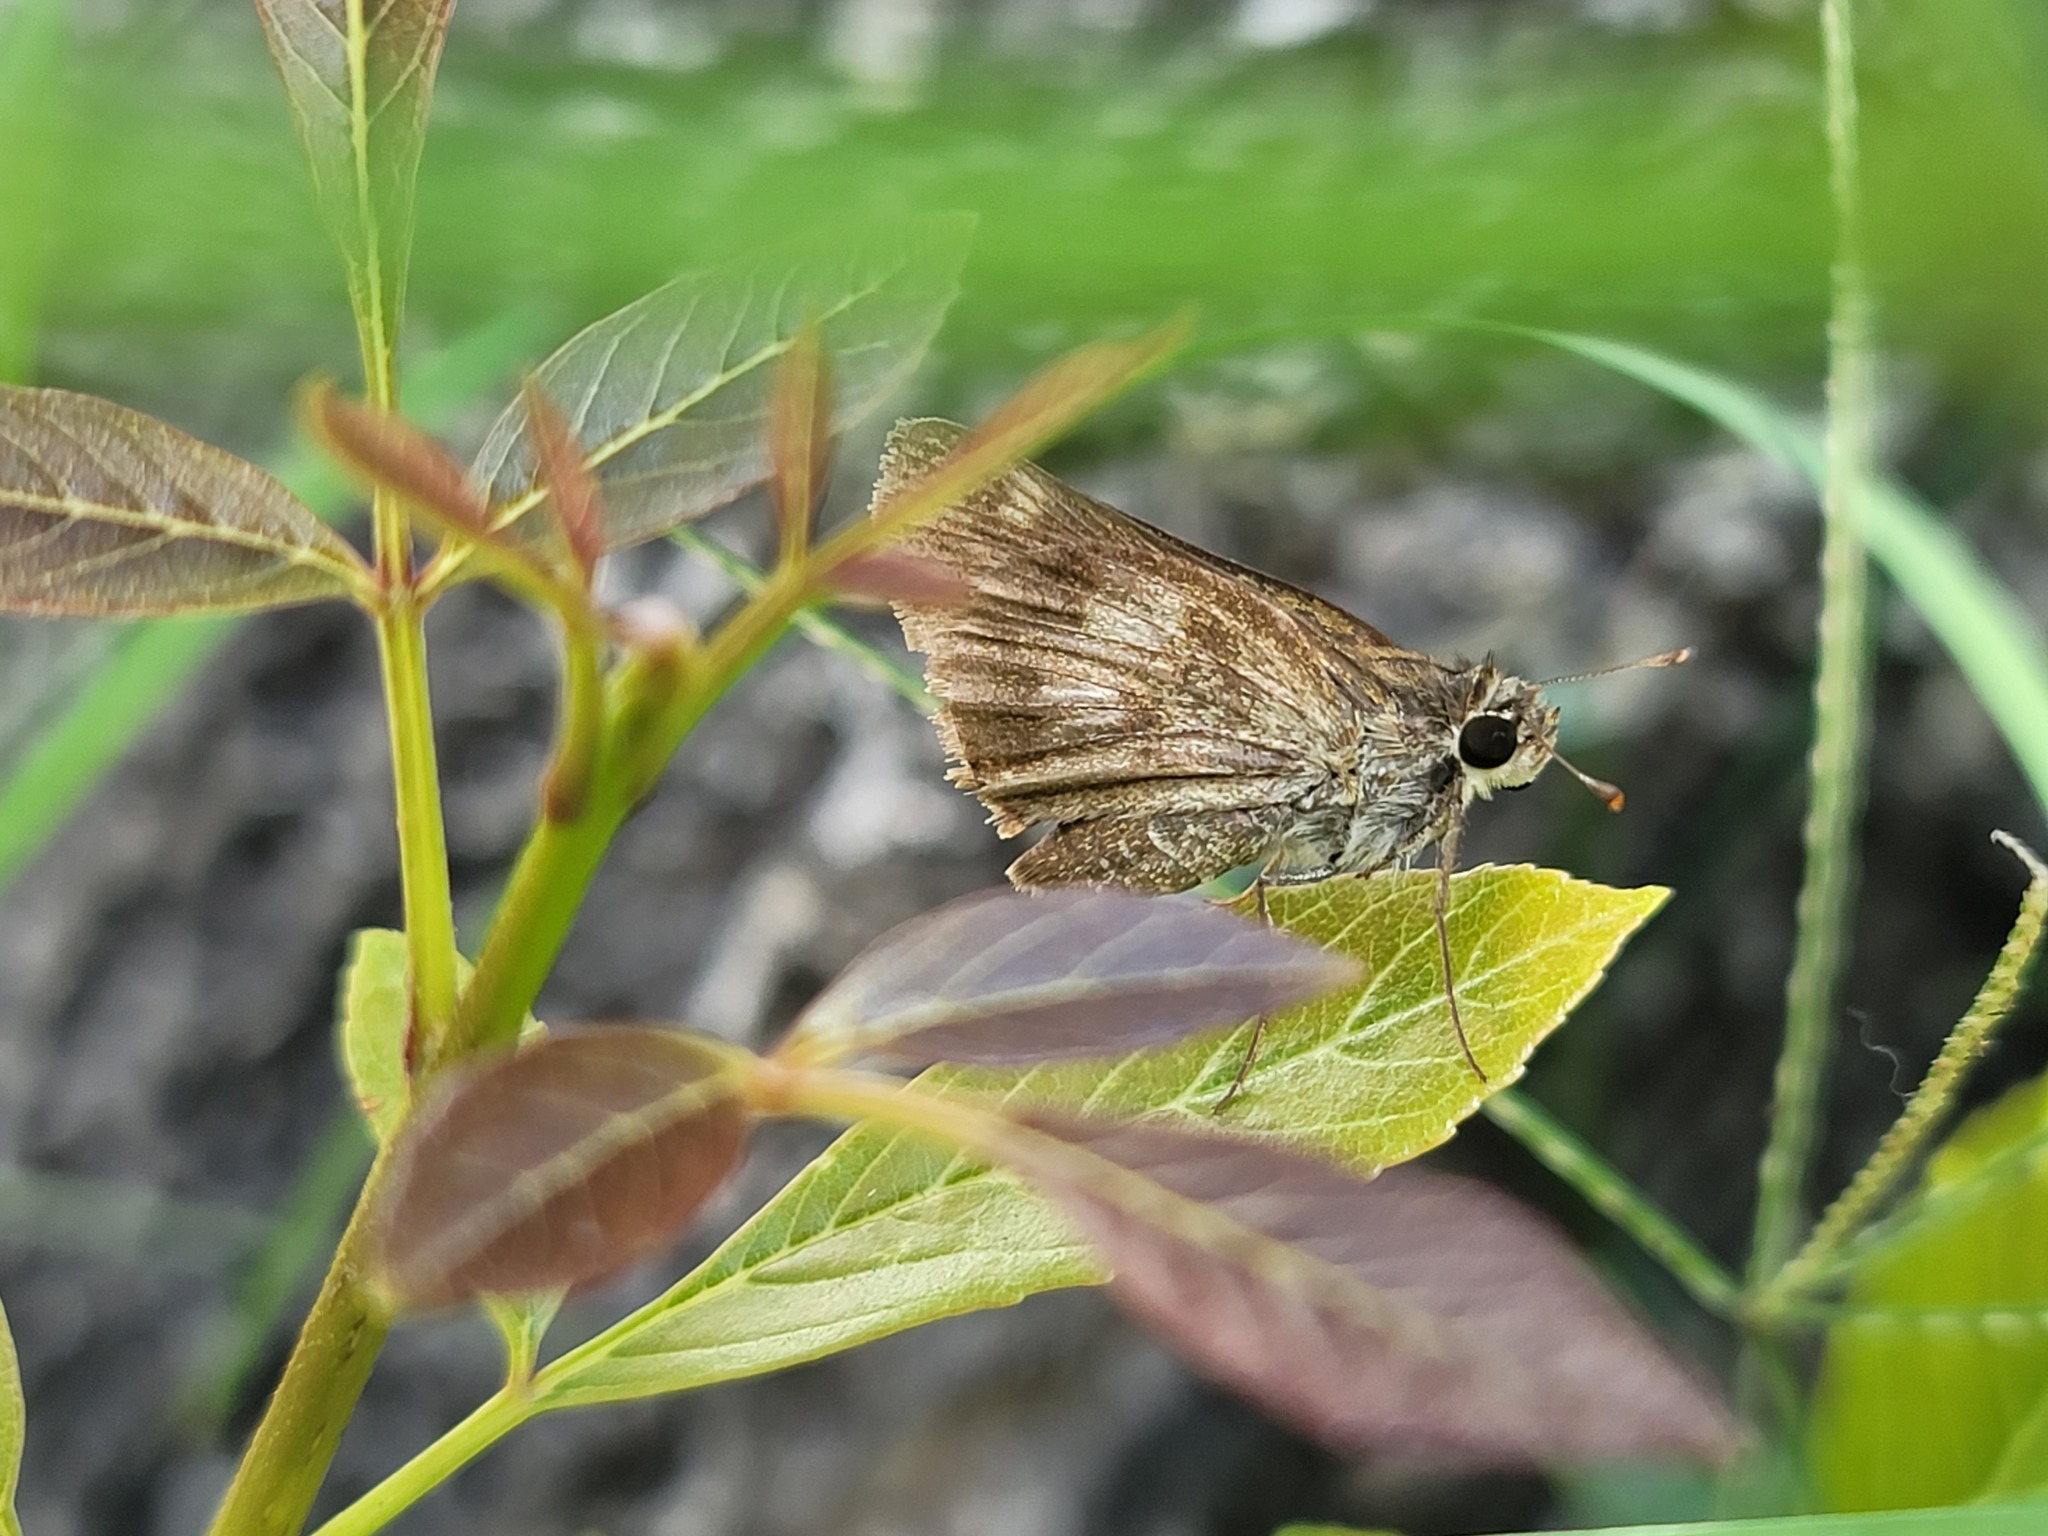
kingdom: Animalia
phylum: Arthropoda
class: Insecta
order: Lepidoptera
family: Hesperiidae
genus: Polites
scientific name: Polites vibex
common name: Whirlabout
